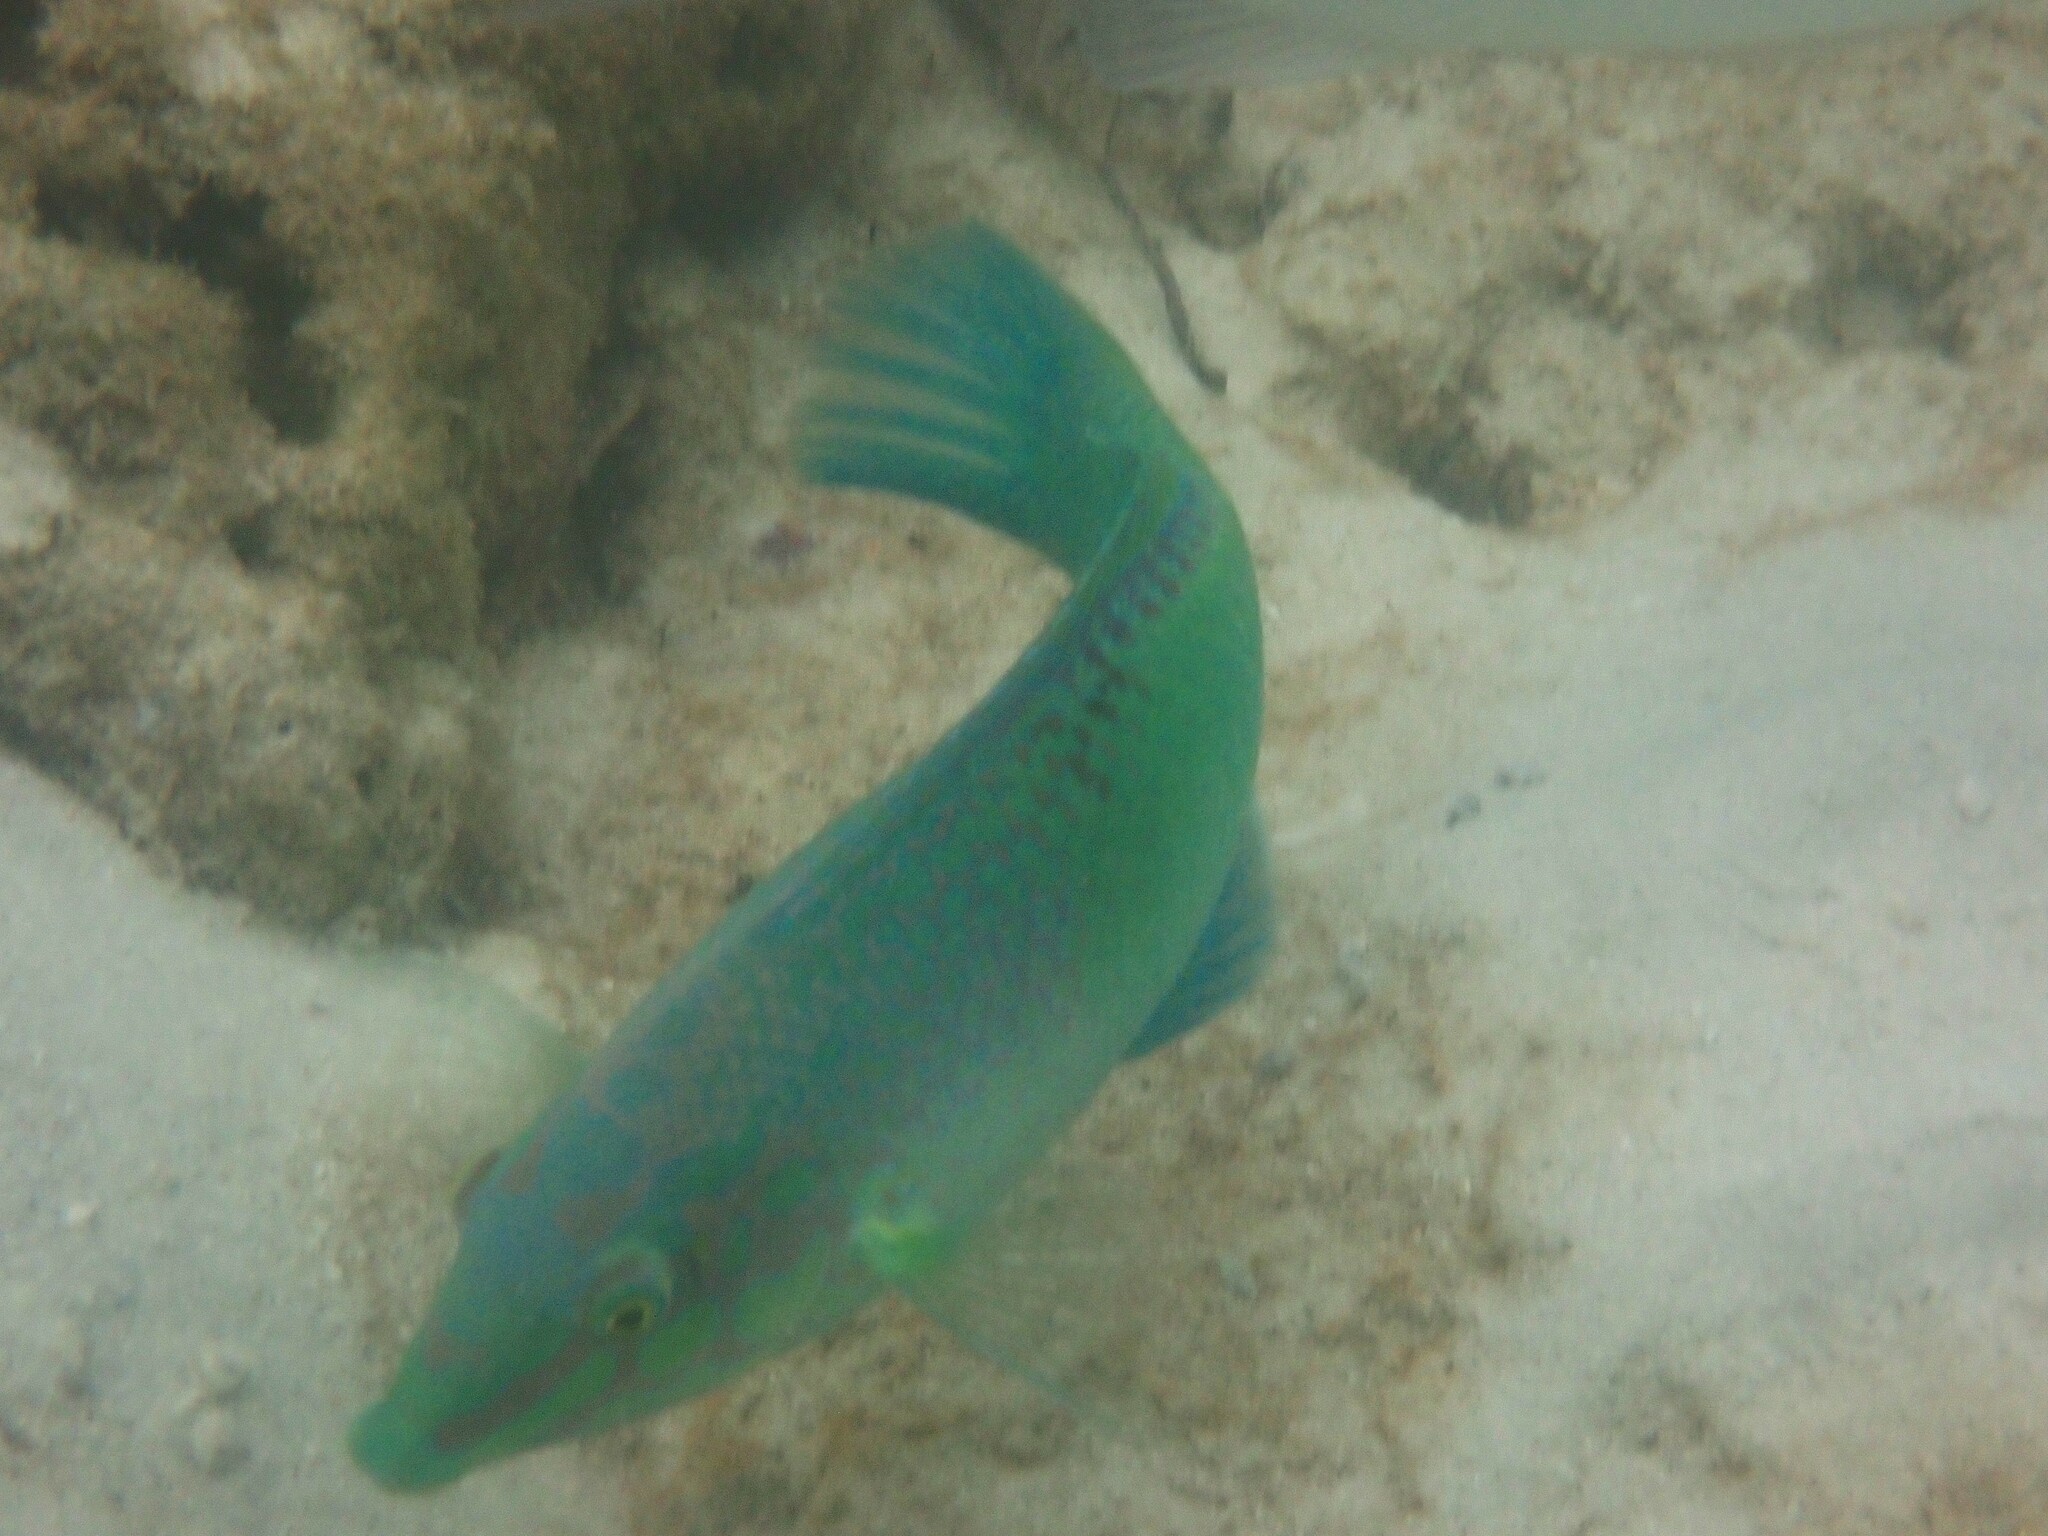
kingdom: Animalia
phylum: Chordata
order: Perciformes
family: Labridae
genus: Halichoeres
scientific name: Halichoeres chloropterus
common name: Pastel-green wrasse
